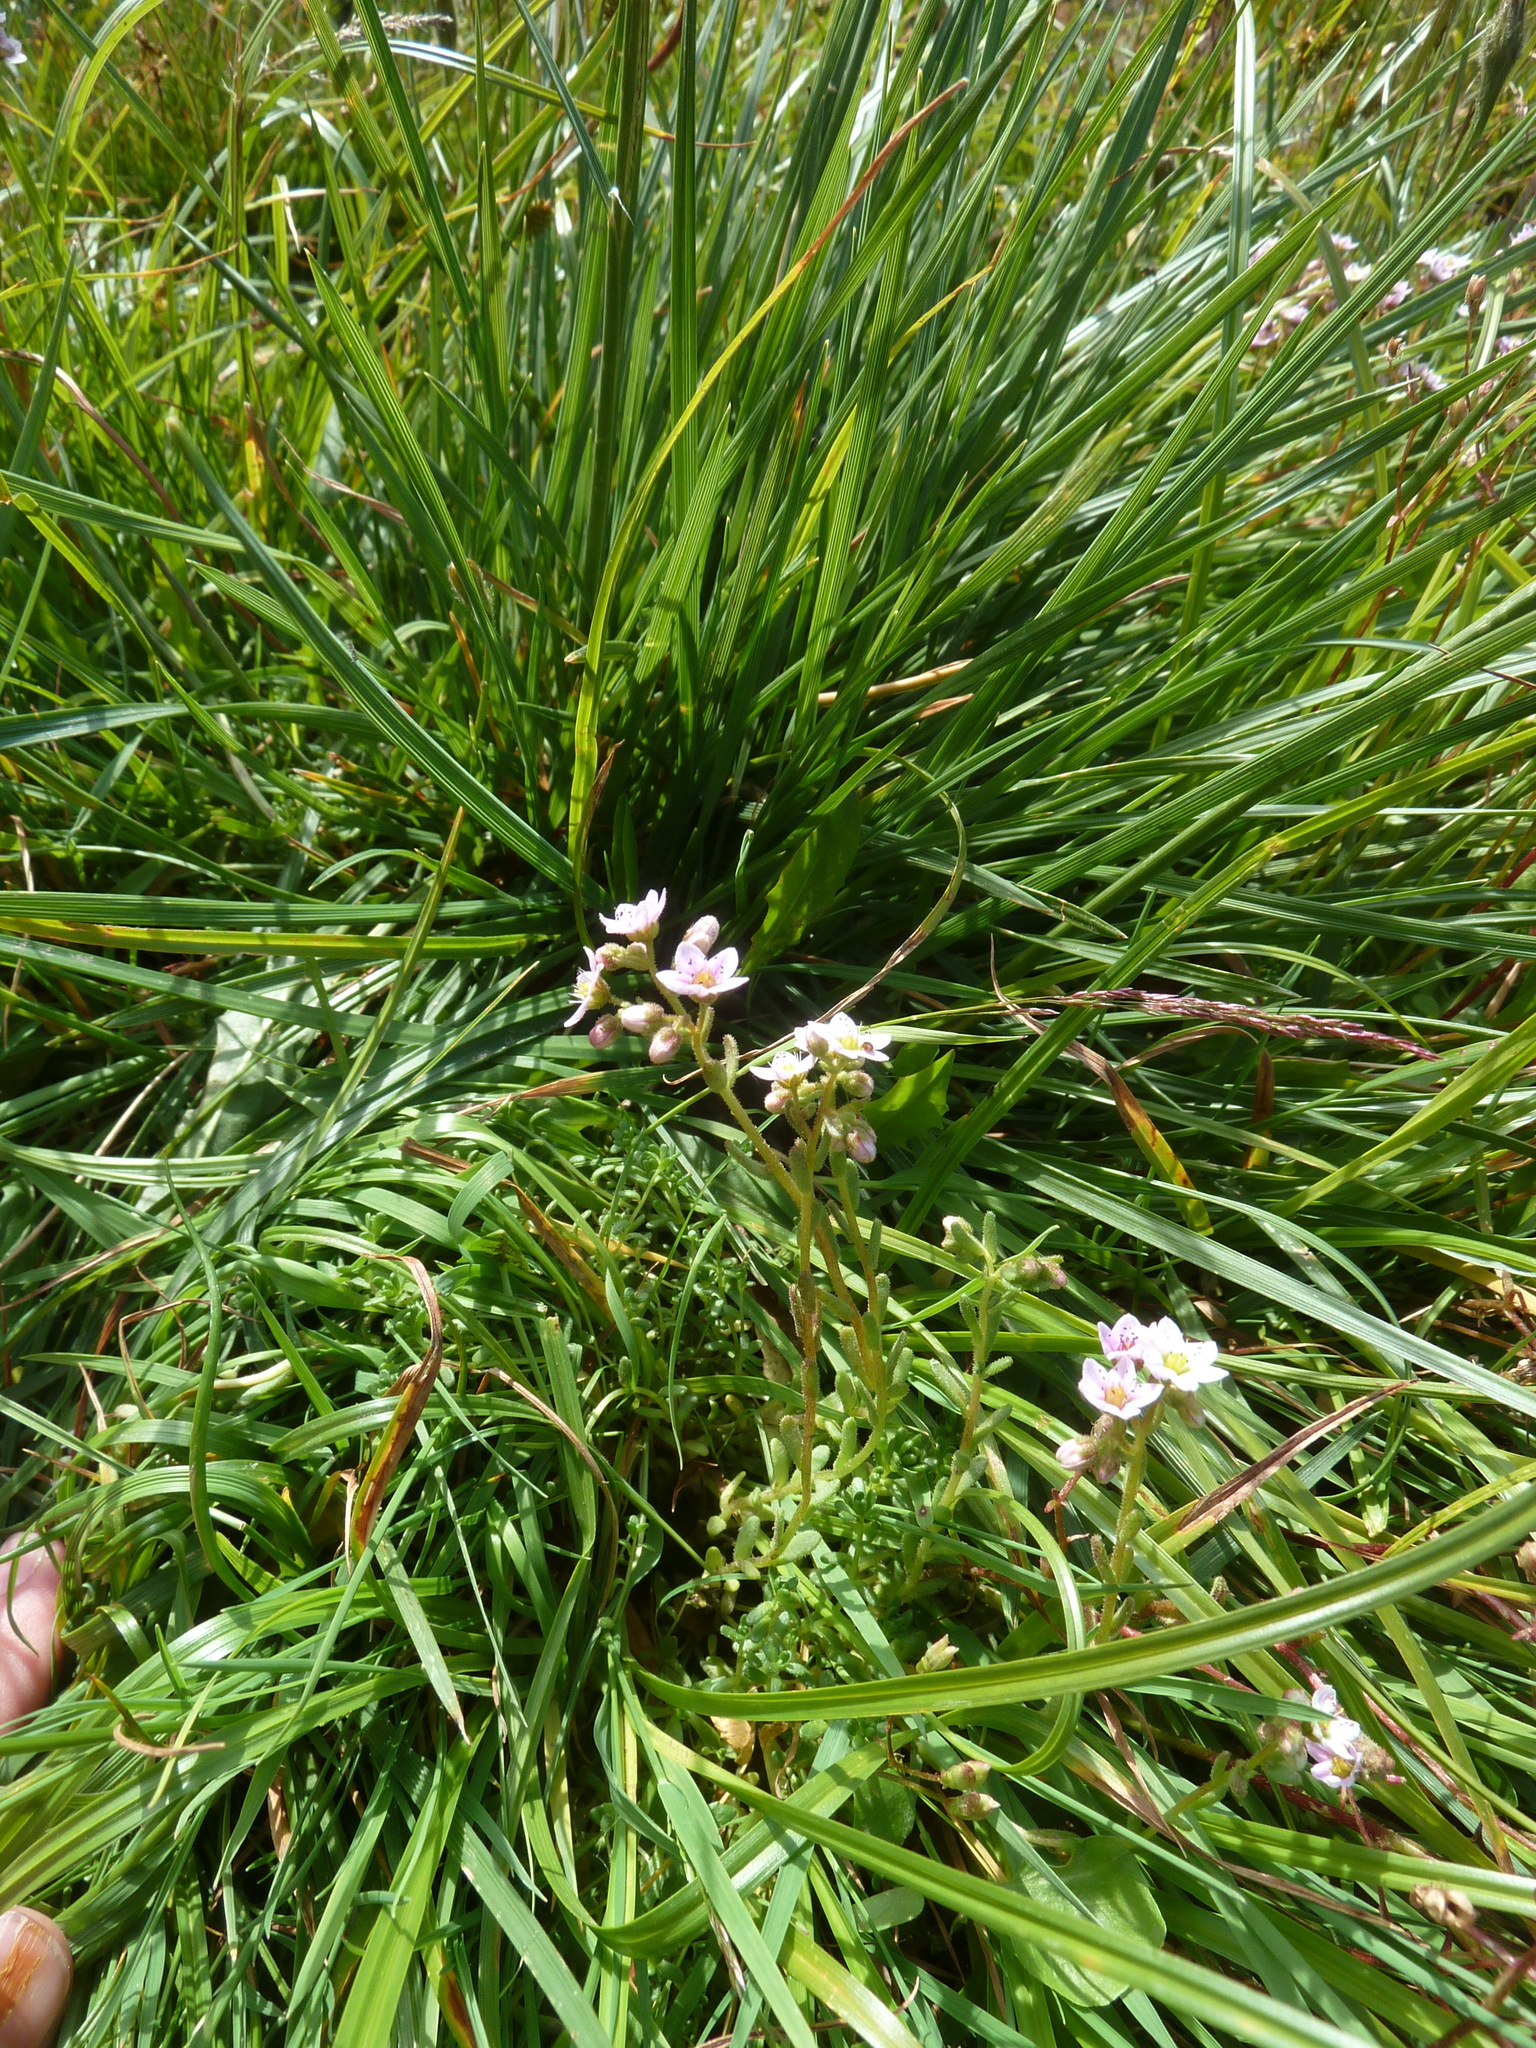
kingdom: Plantae
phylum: Tracheophyta
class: Magnoliopsida
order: Saxifragales
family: Crassulaceae
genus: Sedum
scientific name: Sedum villosum
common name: Hairy stonecrop
